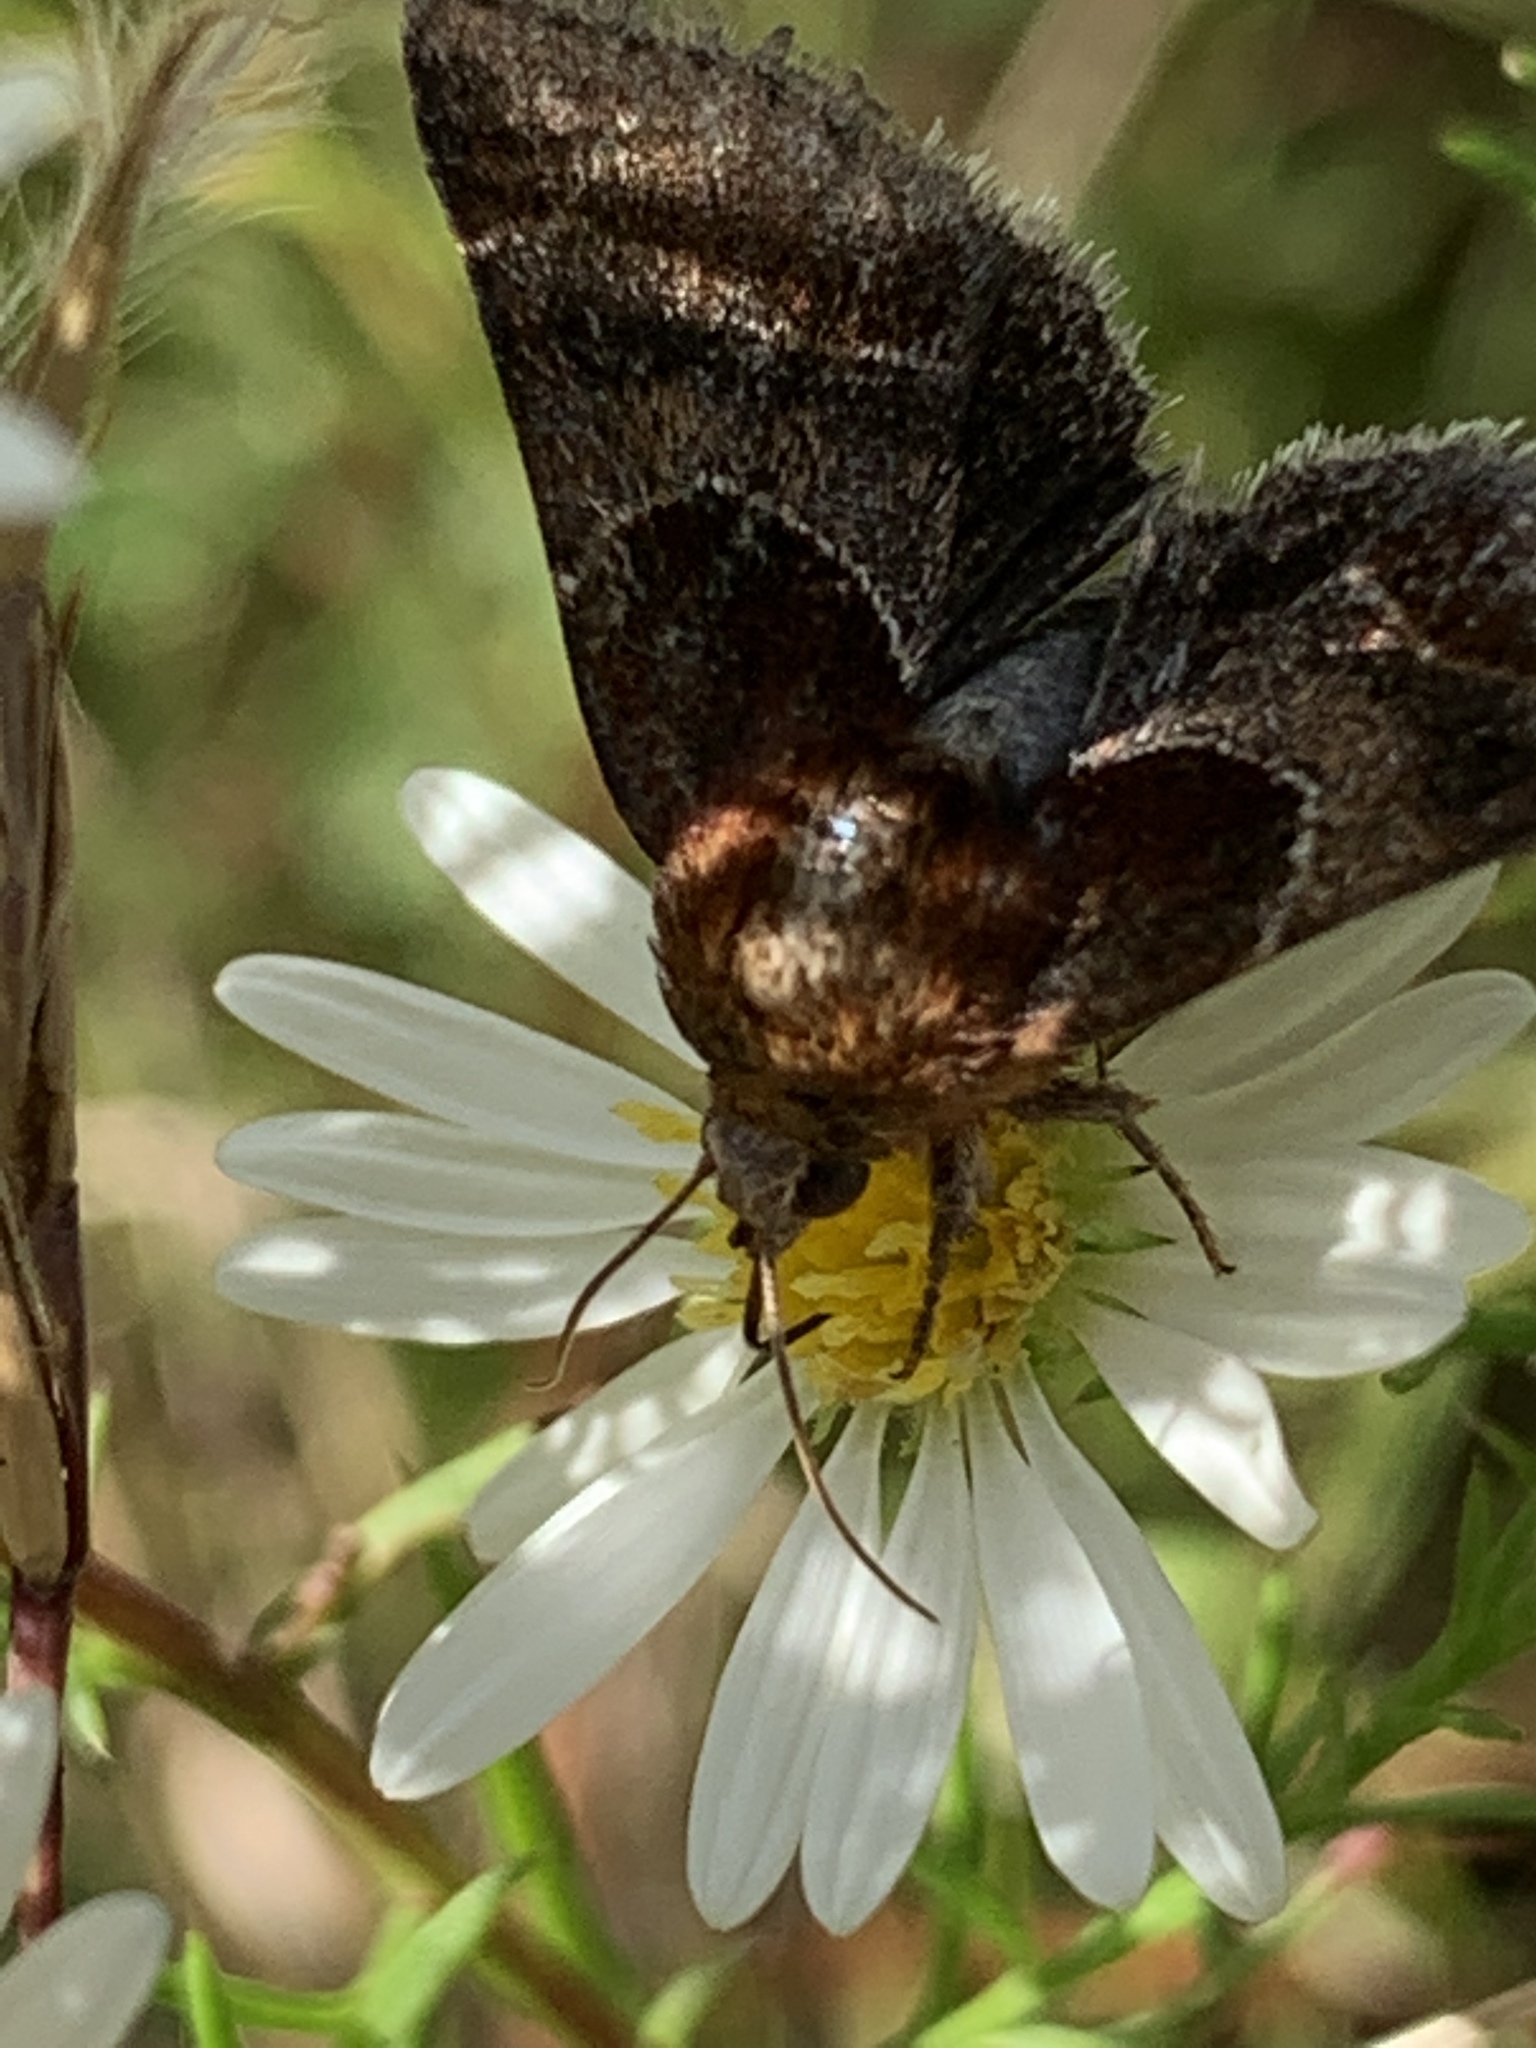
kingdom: Animalia
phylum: Arthropoda
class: Insecta
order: Lepidoptera
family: Noctuidae
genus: Schinia
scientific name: Schinia arcigera
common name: Arcigera flower moth
